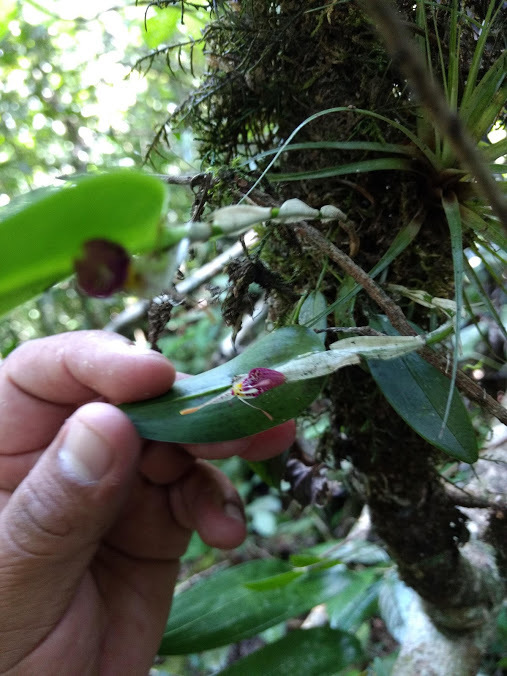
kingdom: Plantae
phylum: Tracheophyta
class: Liliopsida
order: Asparagales
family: Orchidaceae
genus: Restrepia
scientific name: Restrepia muscifera
